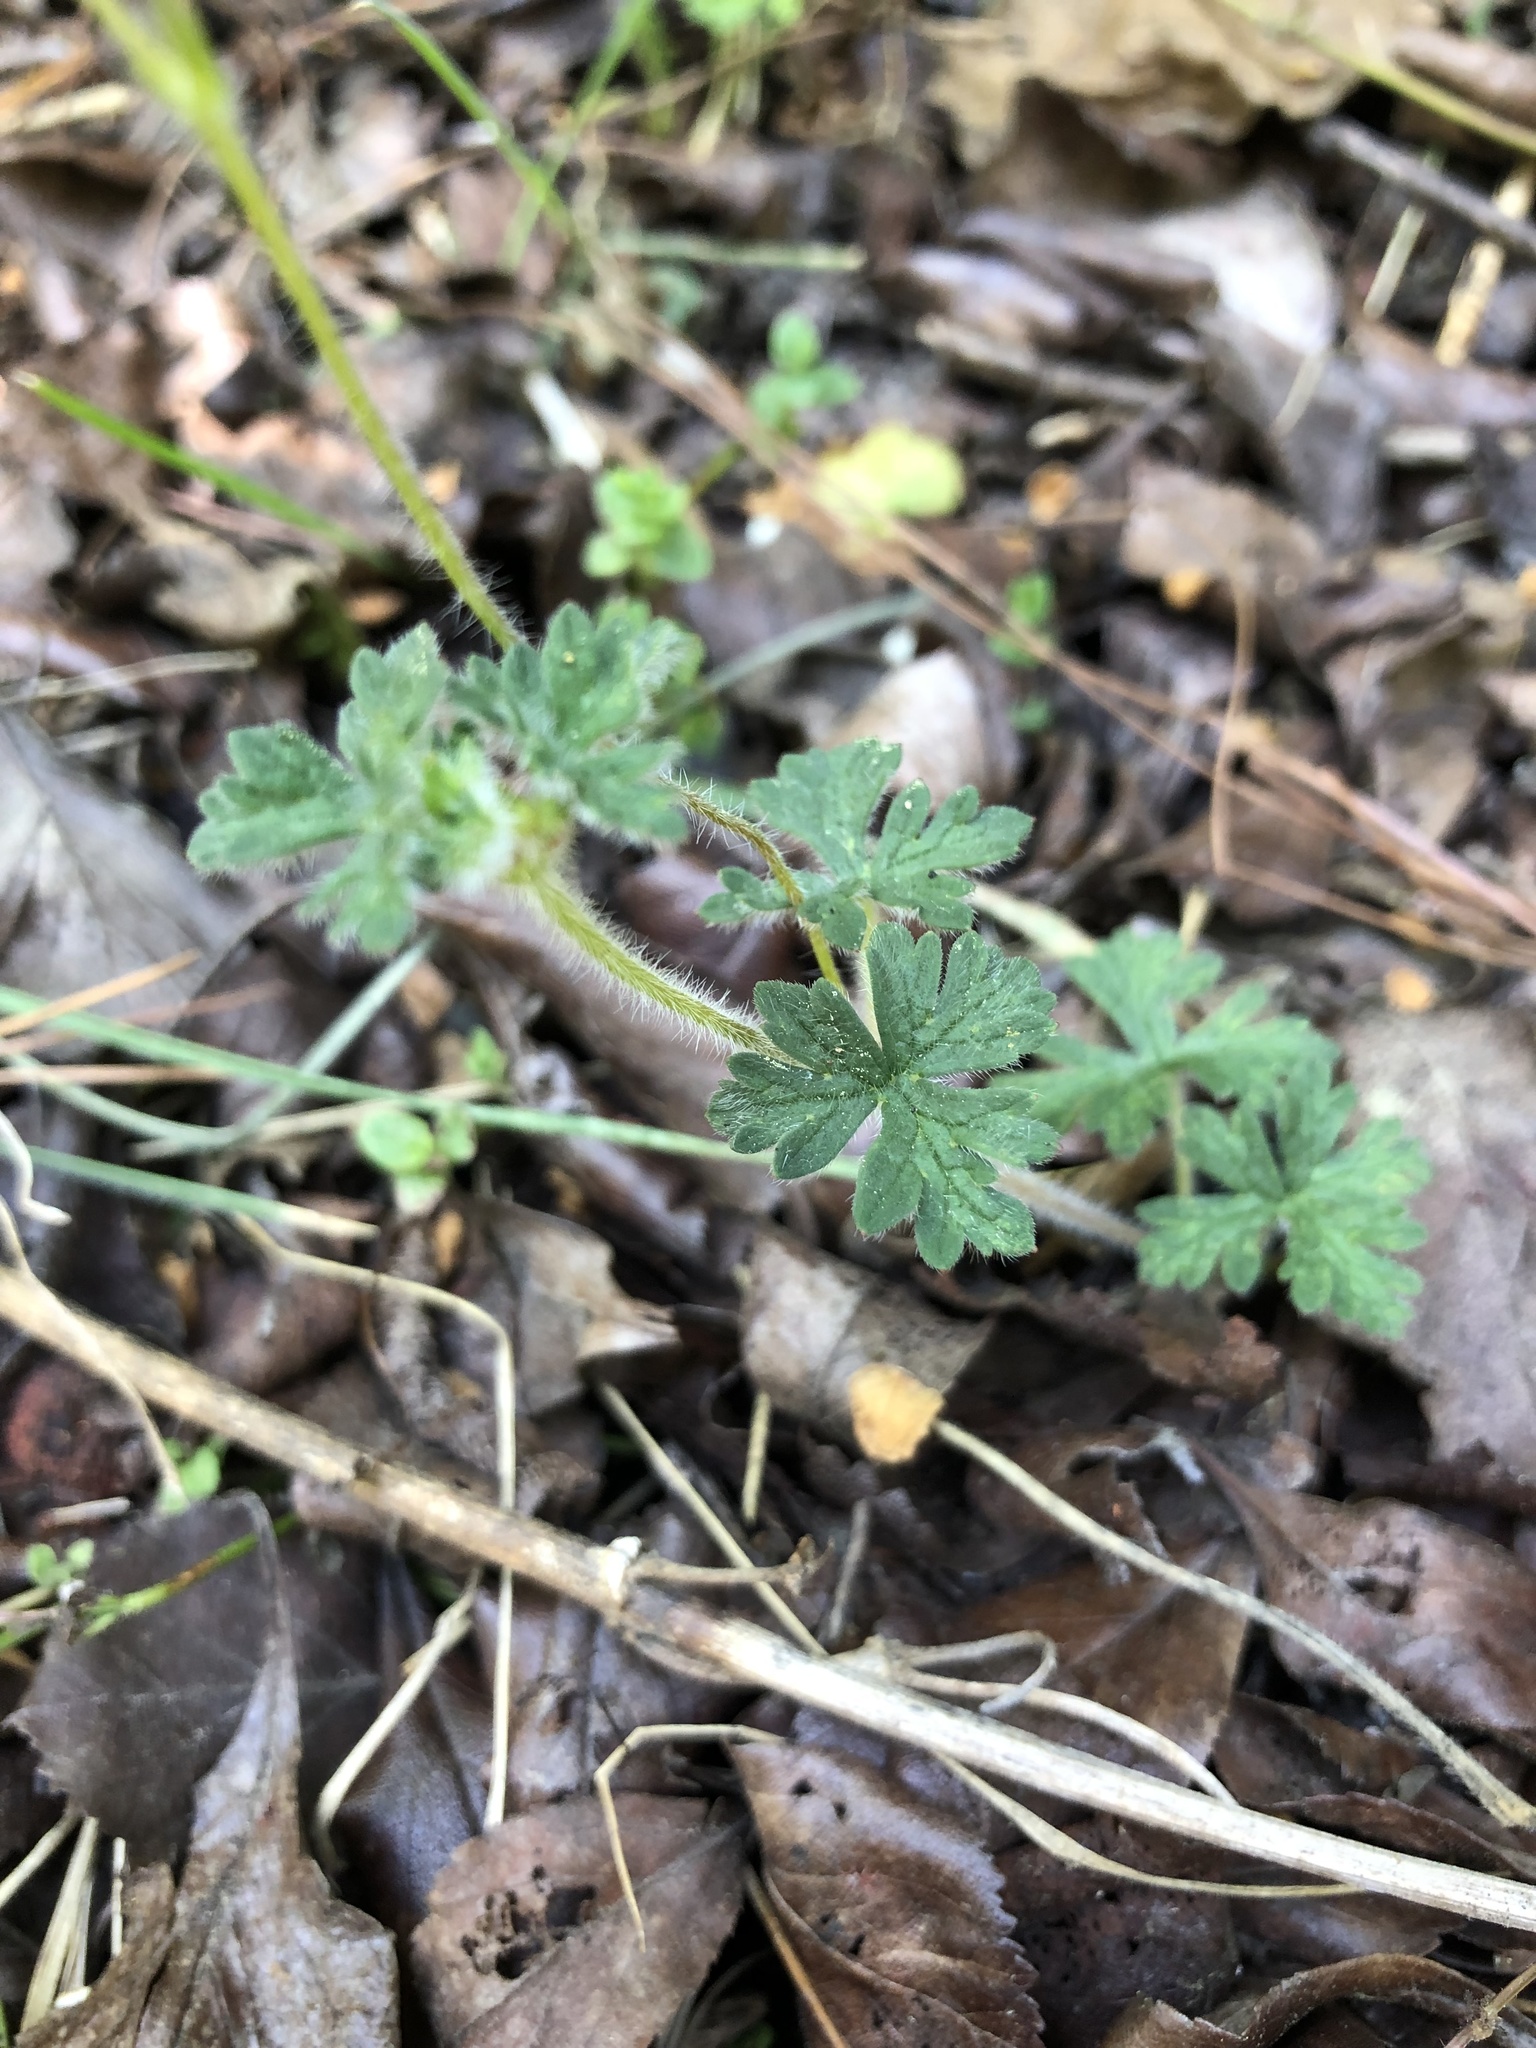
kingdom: Plantae
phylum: Tracheophyta
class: Magnoliopsida
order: Geraniales
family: Geraniaceae
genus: Geranium
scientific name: Geranium goldmanii
